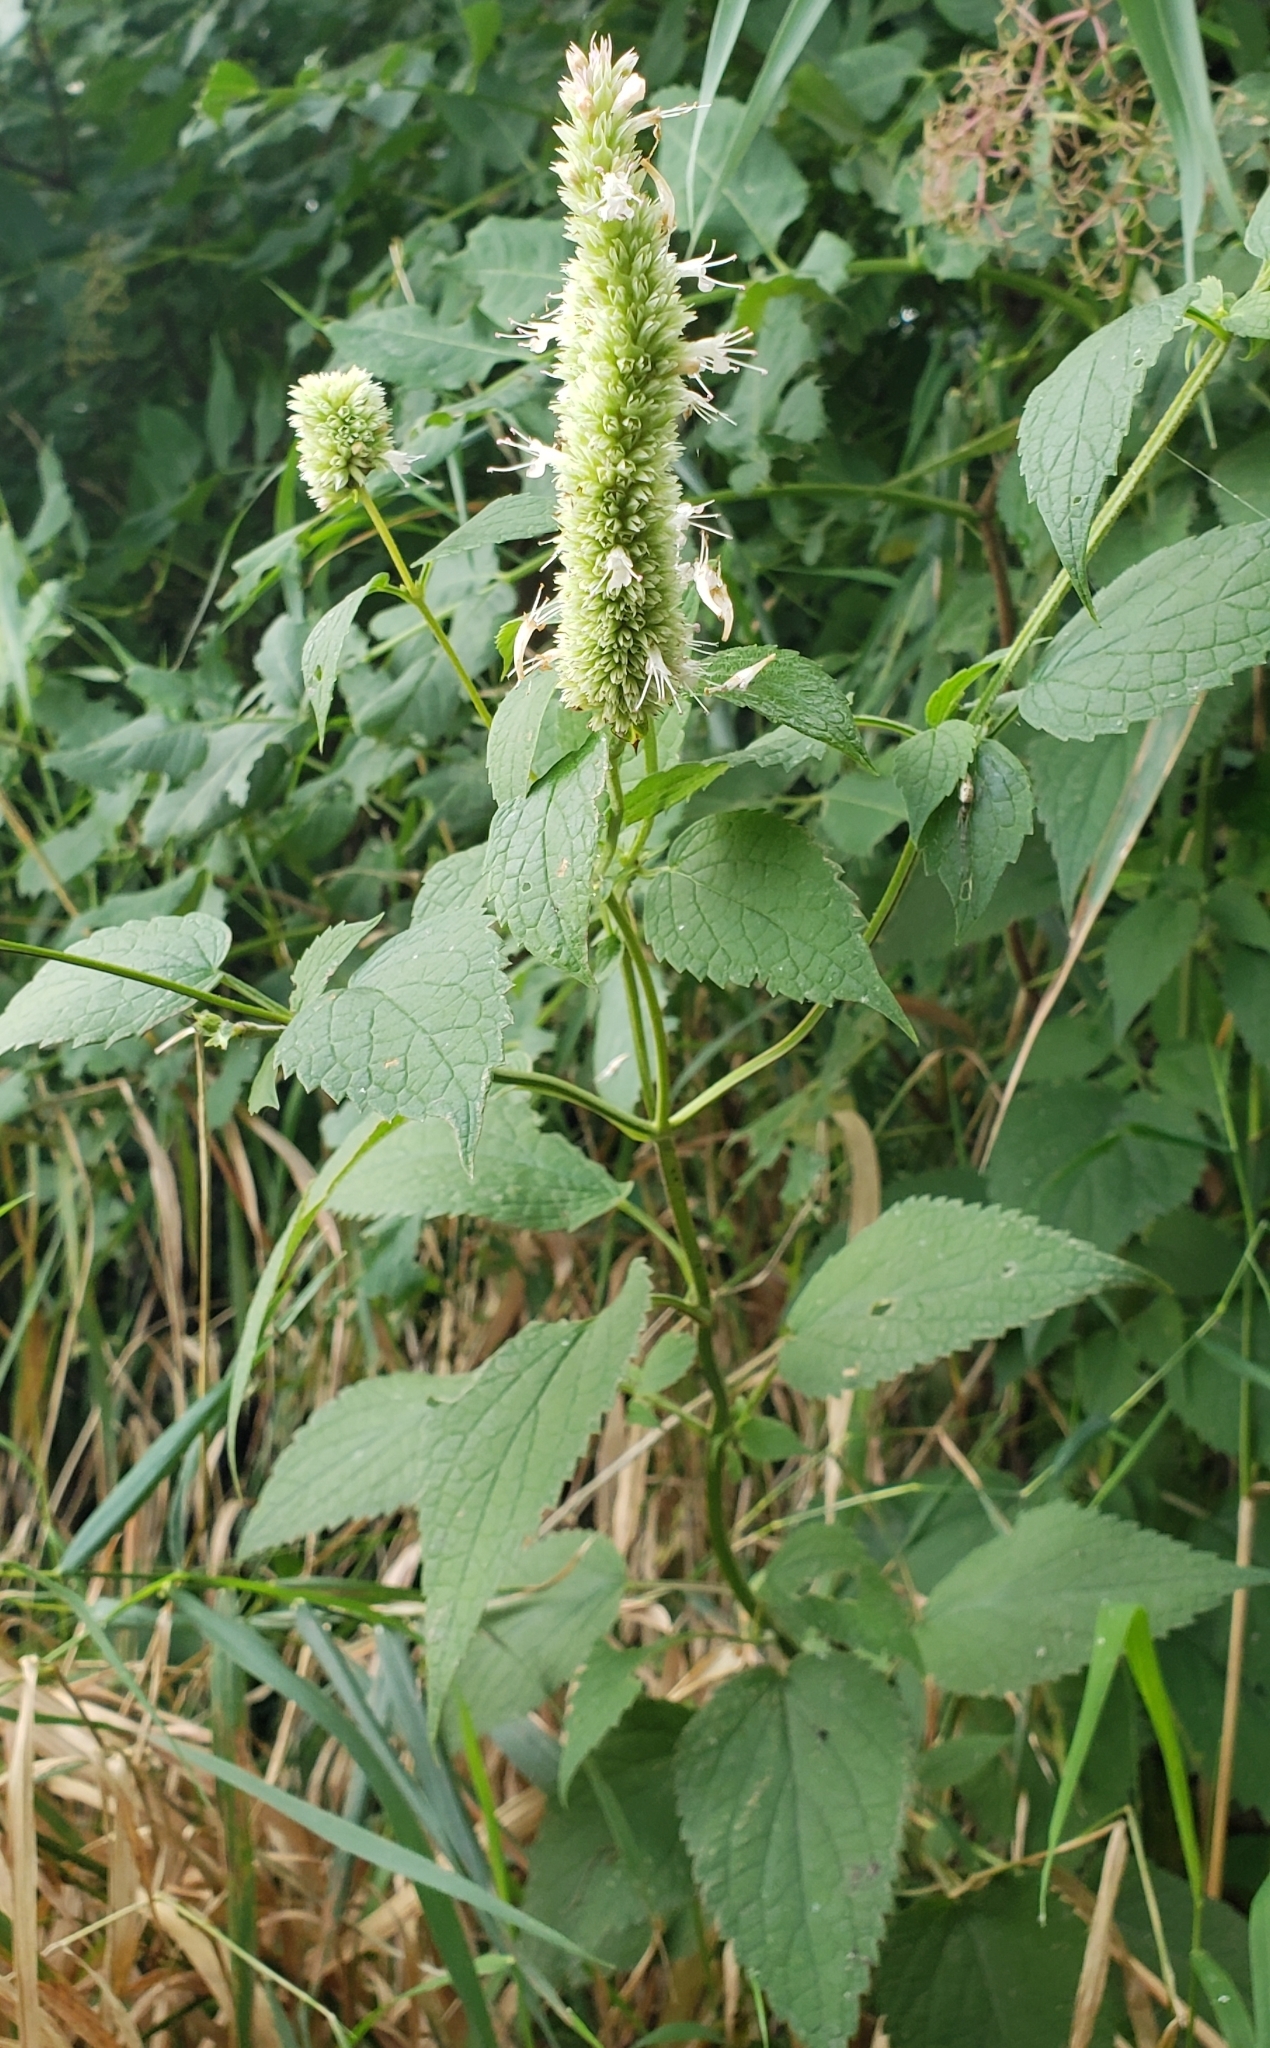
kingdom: Plantae
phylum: Tracheophyta
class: Magnoliopsida
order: Lamiales
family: Lamiaceae
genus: Agastache
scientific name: Agastache scrophulariifolia
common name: Figwort giant hyssop
